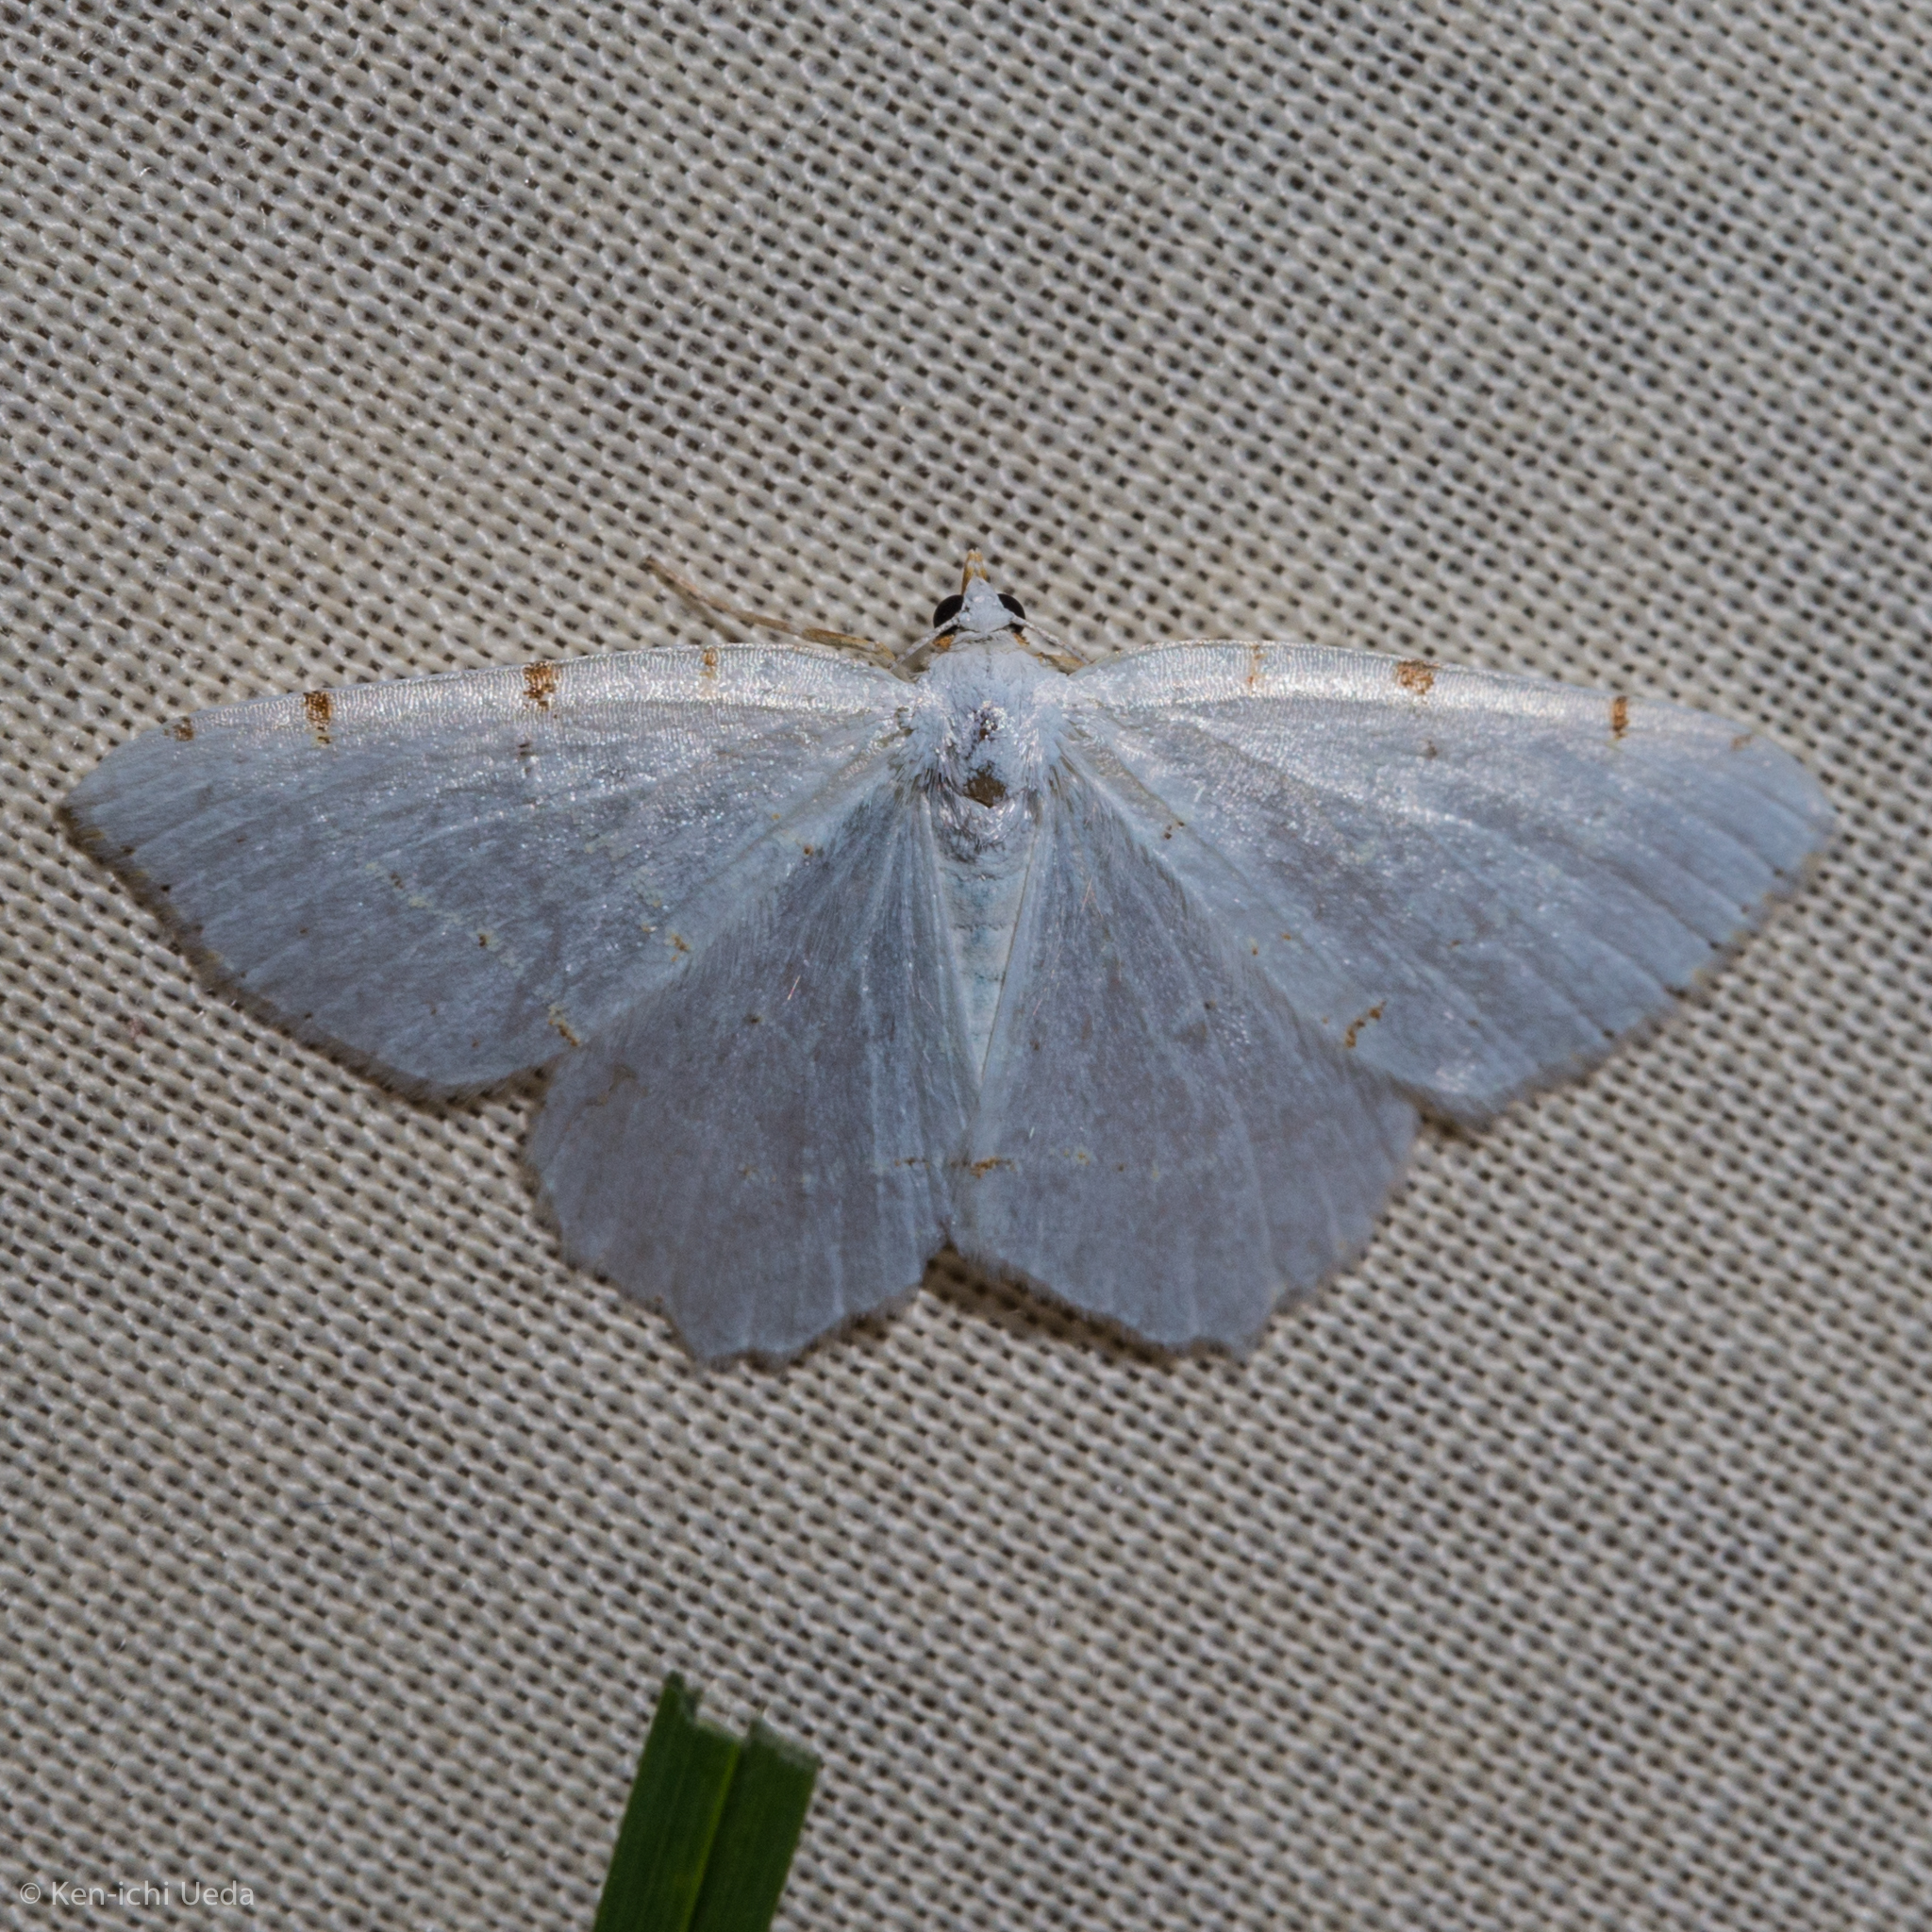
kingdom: Animalia
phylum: Arthropoda
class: Insecta
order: Lepidoptera
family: Geometridae
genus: Macaria
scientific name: Macaria pustularia
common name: Lesser maple spanworm moth
